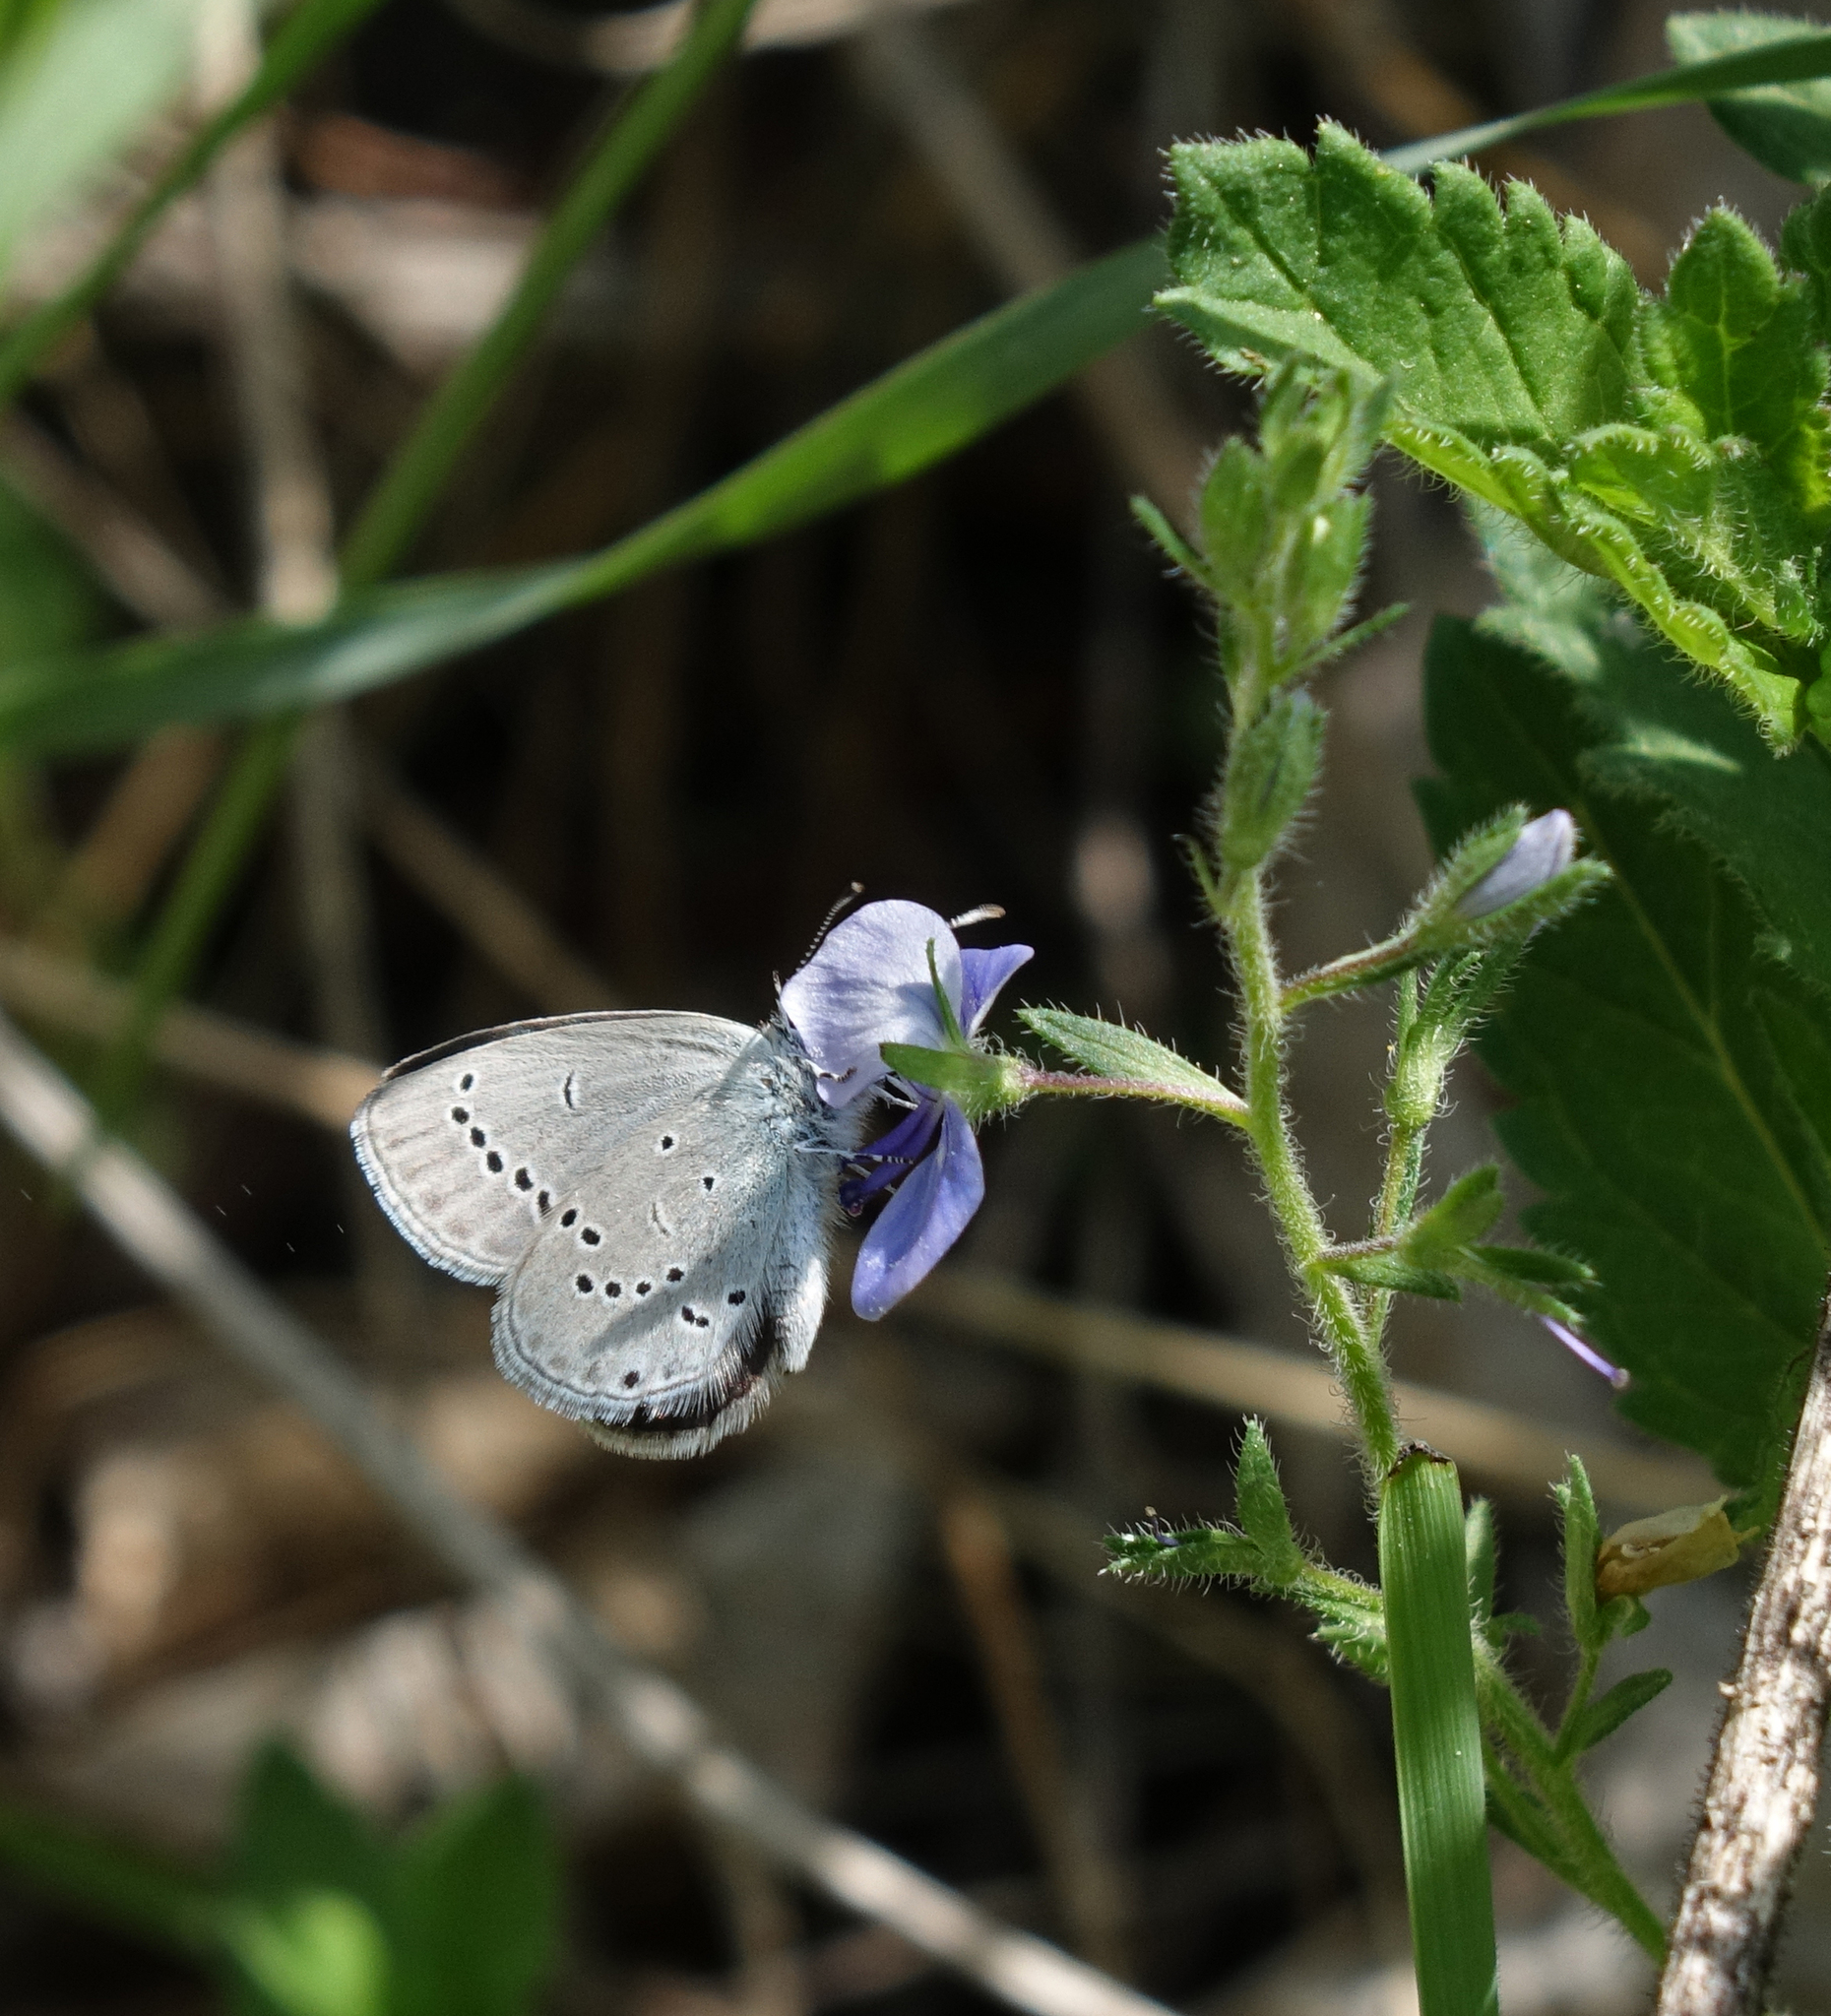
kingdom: Plantae
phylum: Tracheophyta
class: Magnoliopsida
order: Lamiales
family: Plantaginaceae
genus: Veronica
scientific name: Veronica krylovii
